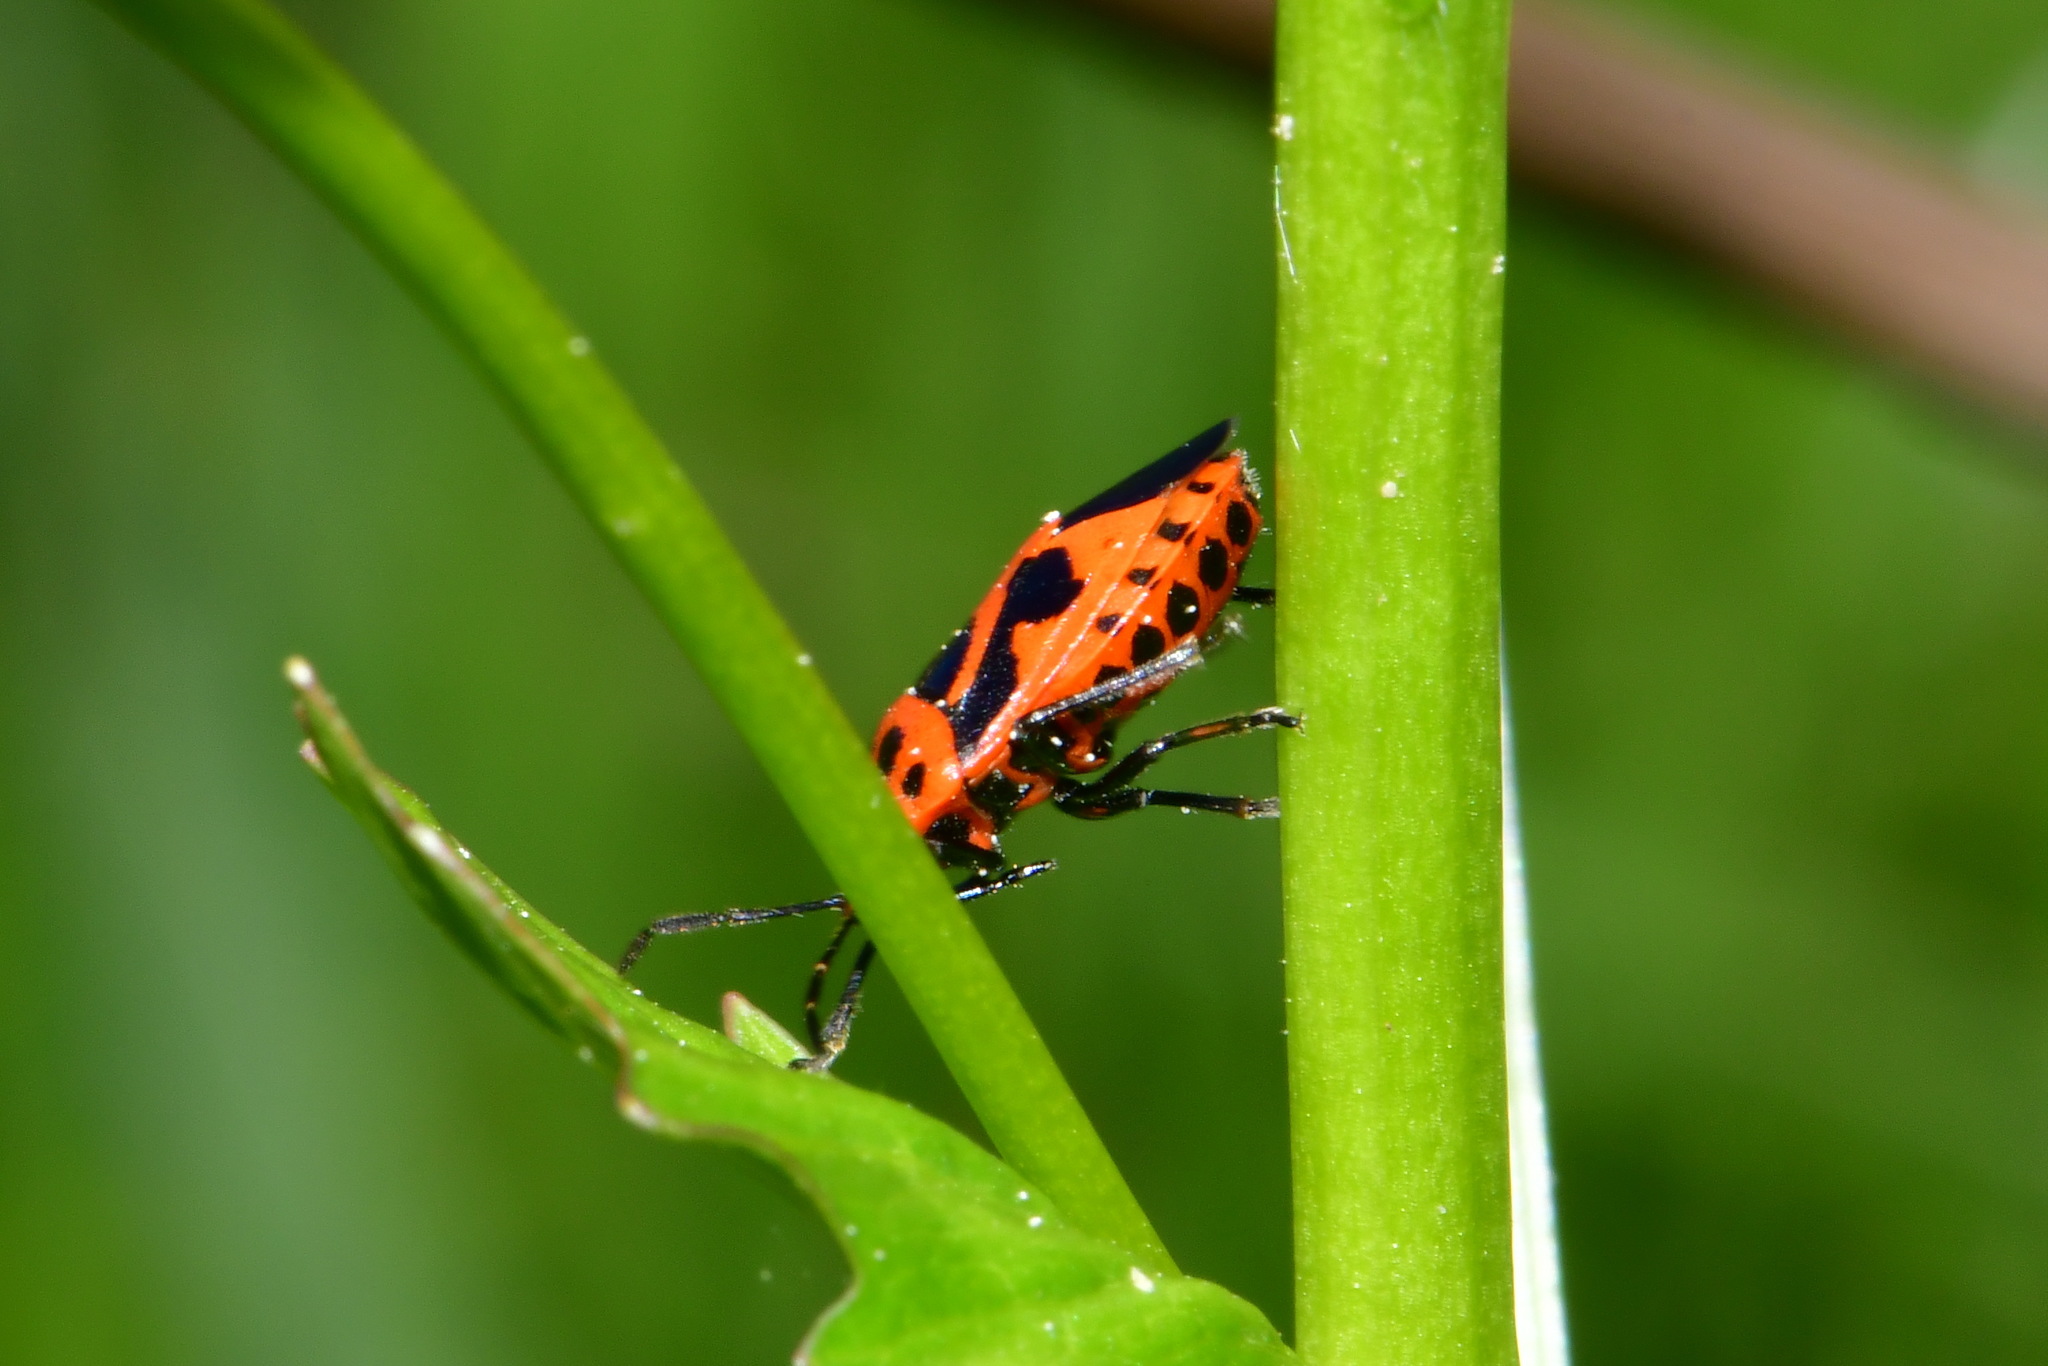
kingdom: Animalia
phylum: Arthropoda
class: Insecta
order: Hemiptera
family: Pentatomidae
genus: Eurydema
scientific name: Eurydema dominulus
